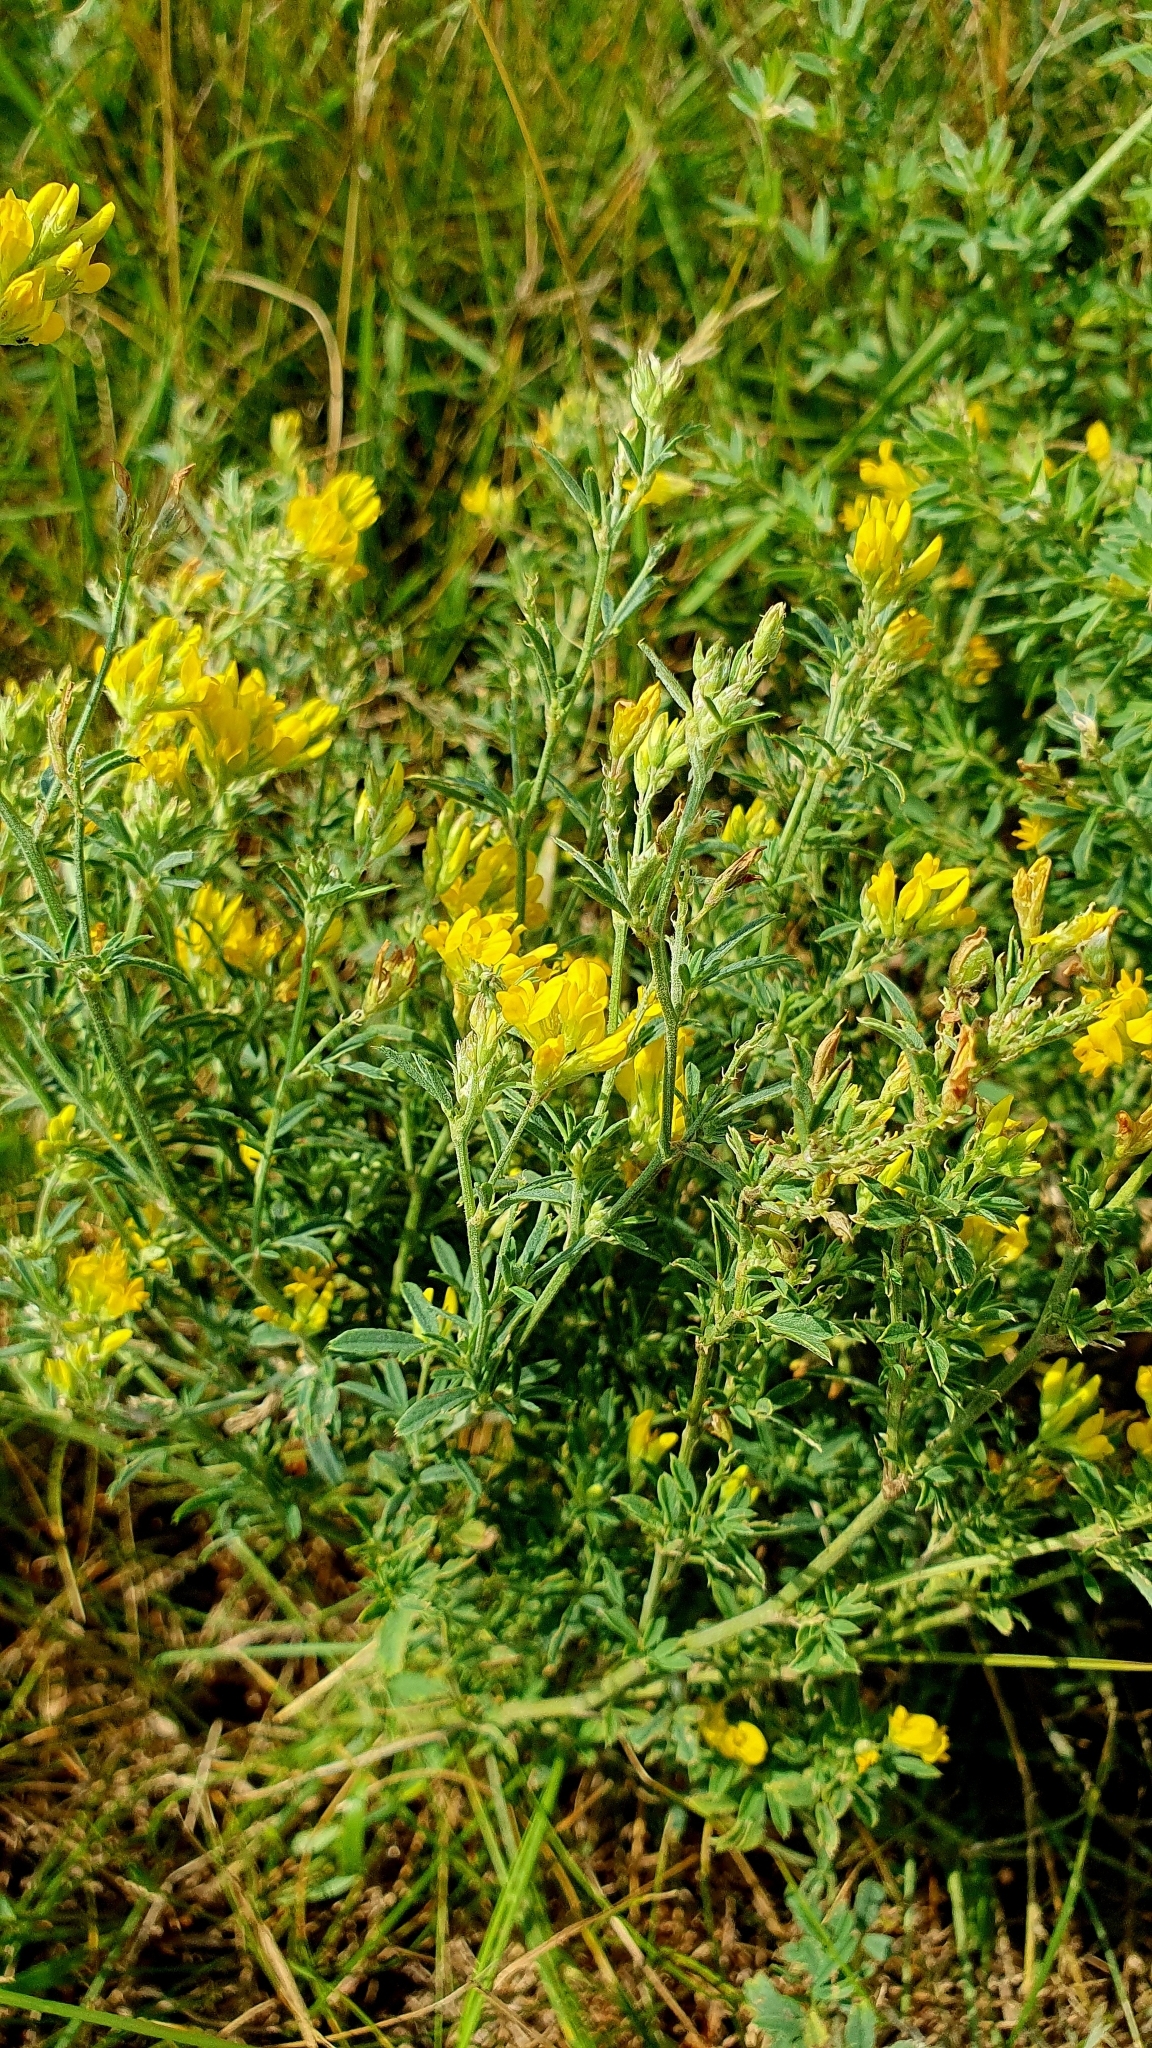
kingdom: Plantae
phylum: Tracheophyta
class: Magnoliopsida
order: Fabales
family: Fabaceae
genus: Medicago
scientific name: Medicago falcata
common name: Sickle medick
